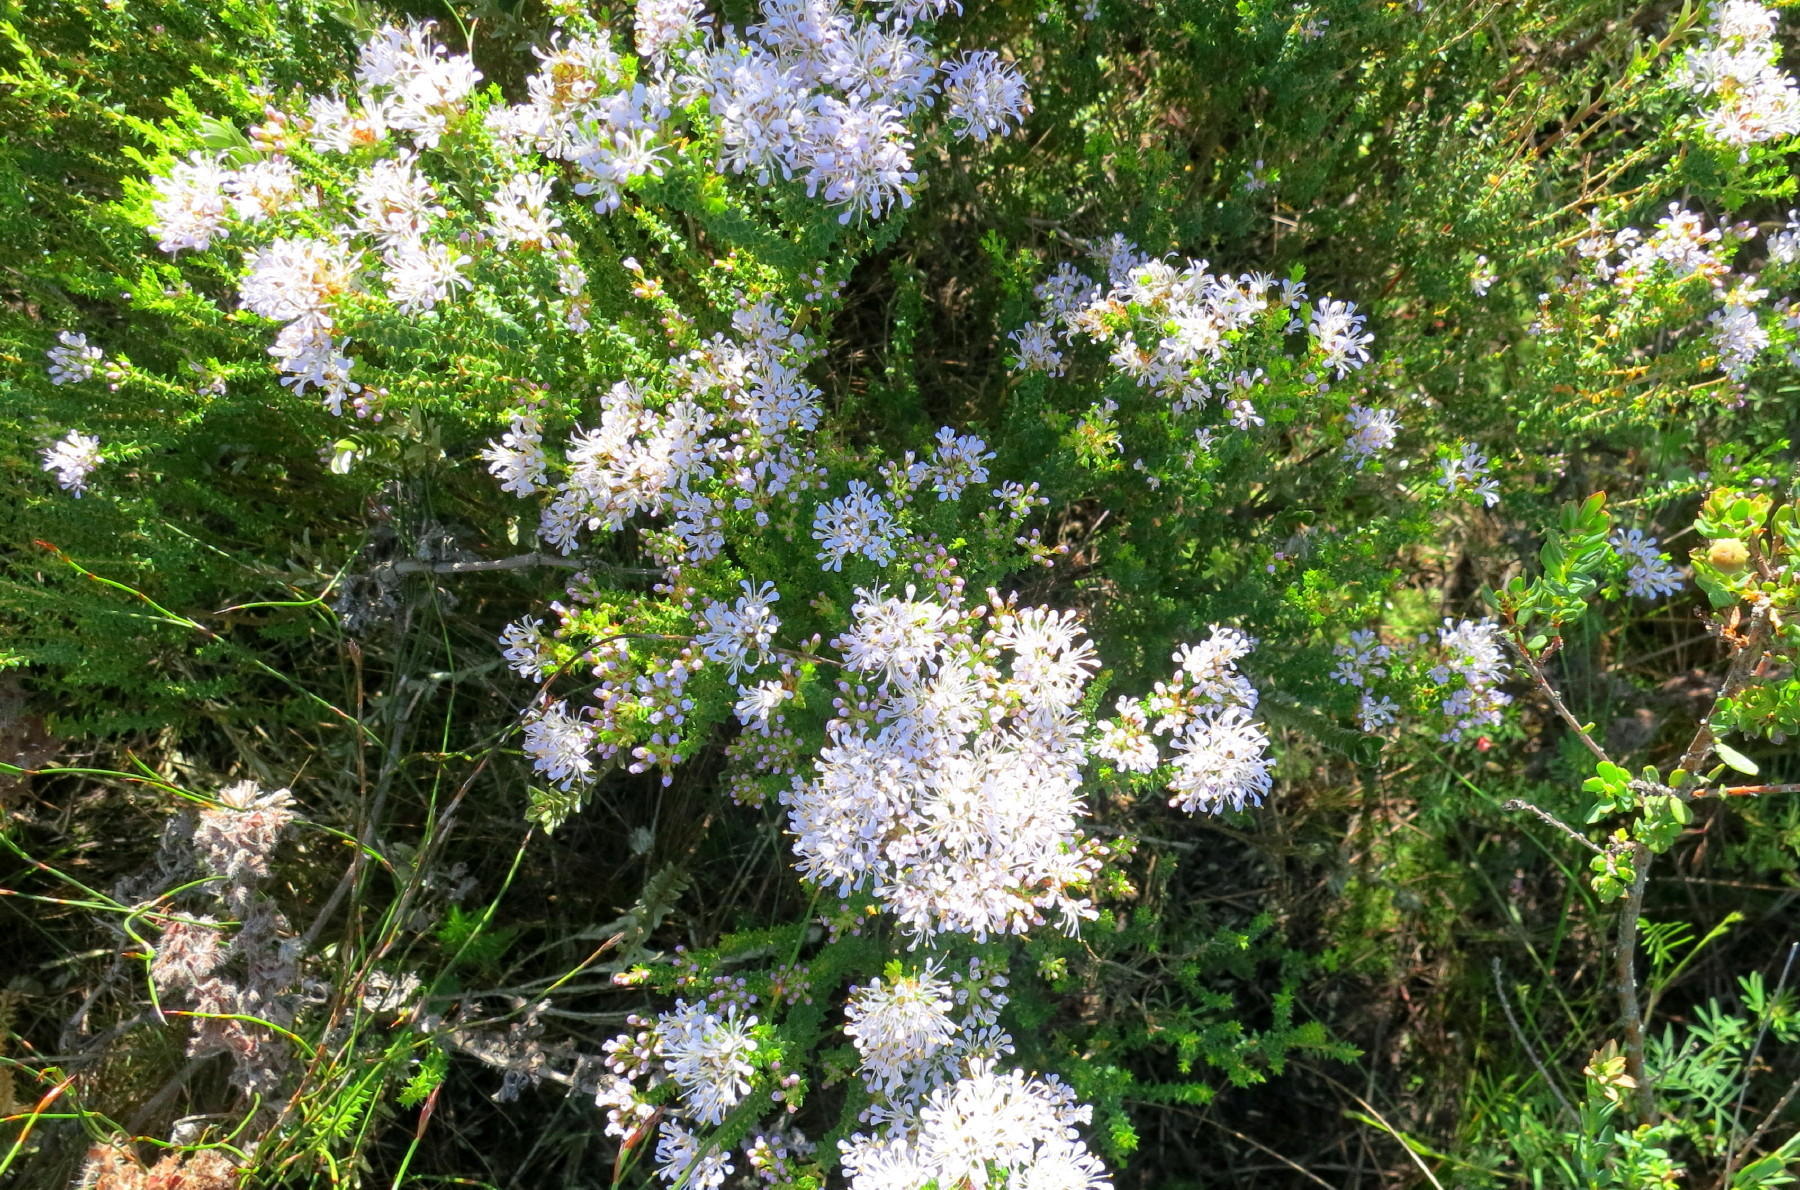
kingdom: Plantae
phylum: Tracheophyta
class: Magnoliopsida
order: Sapindales
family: Rutaceae
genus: Agathosma
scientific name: Agathosma capensis
